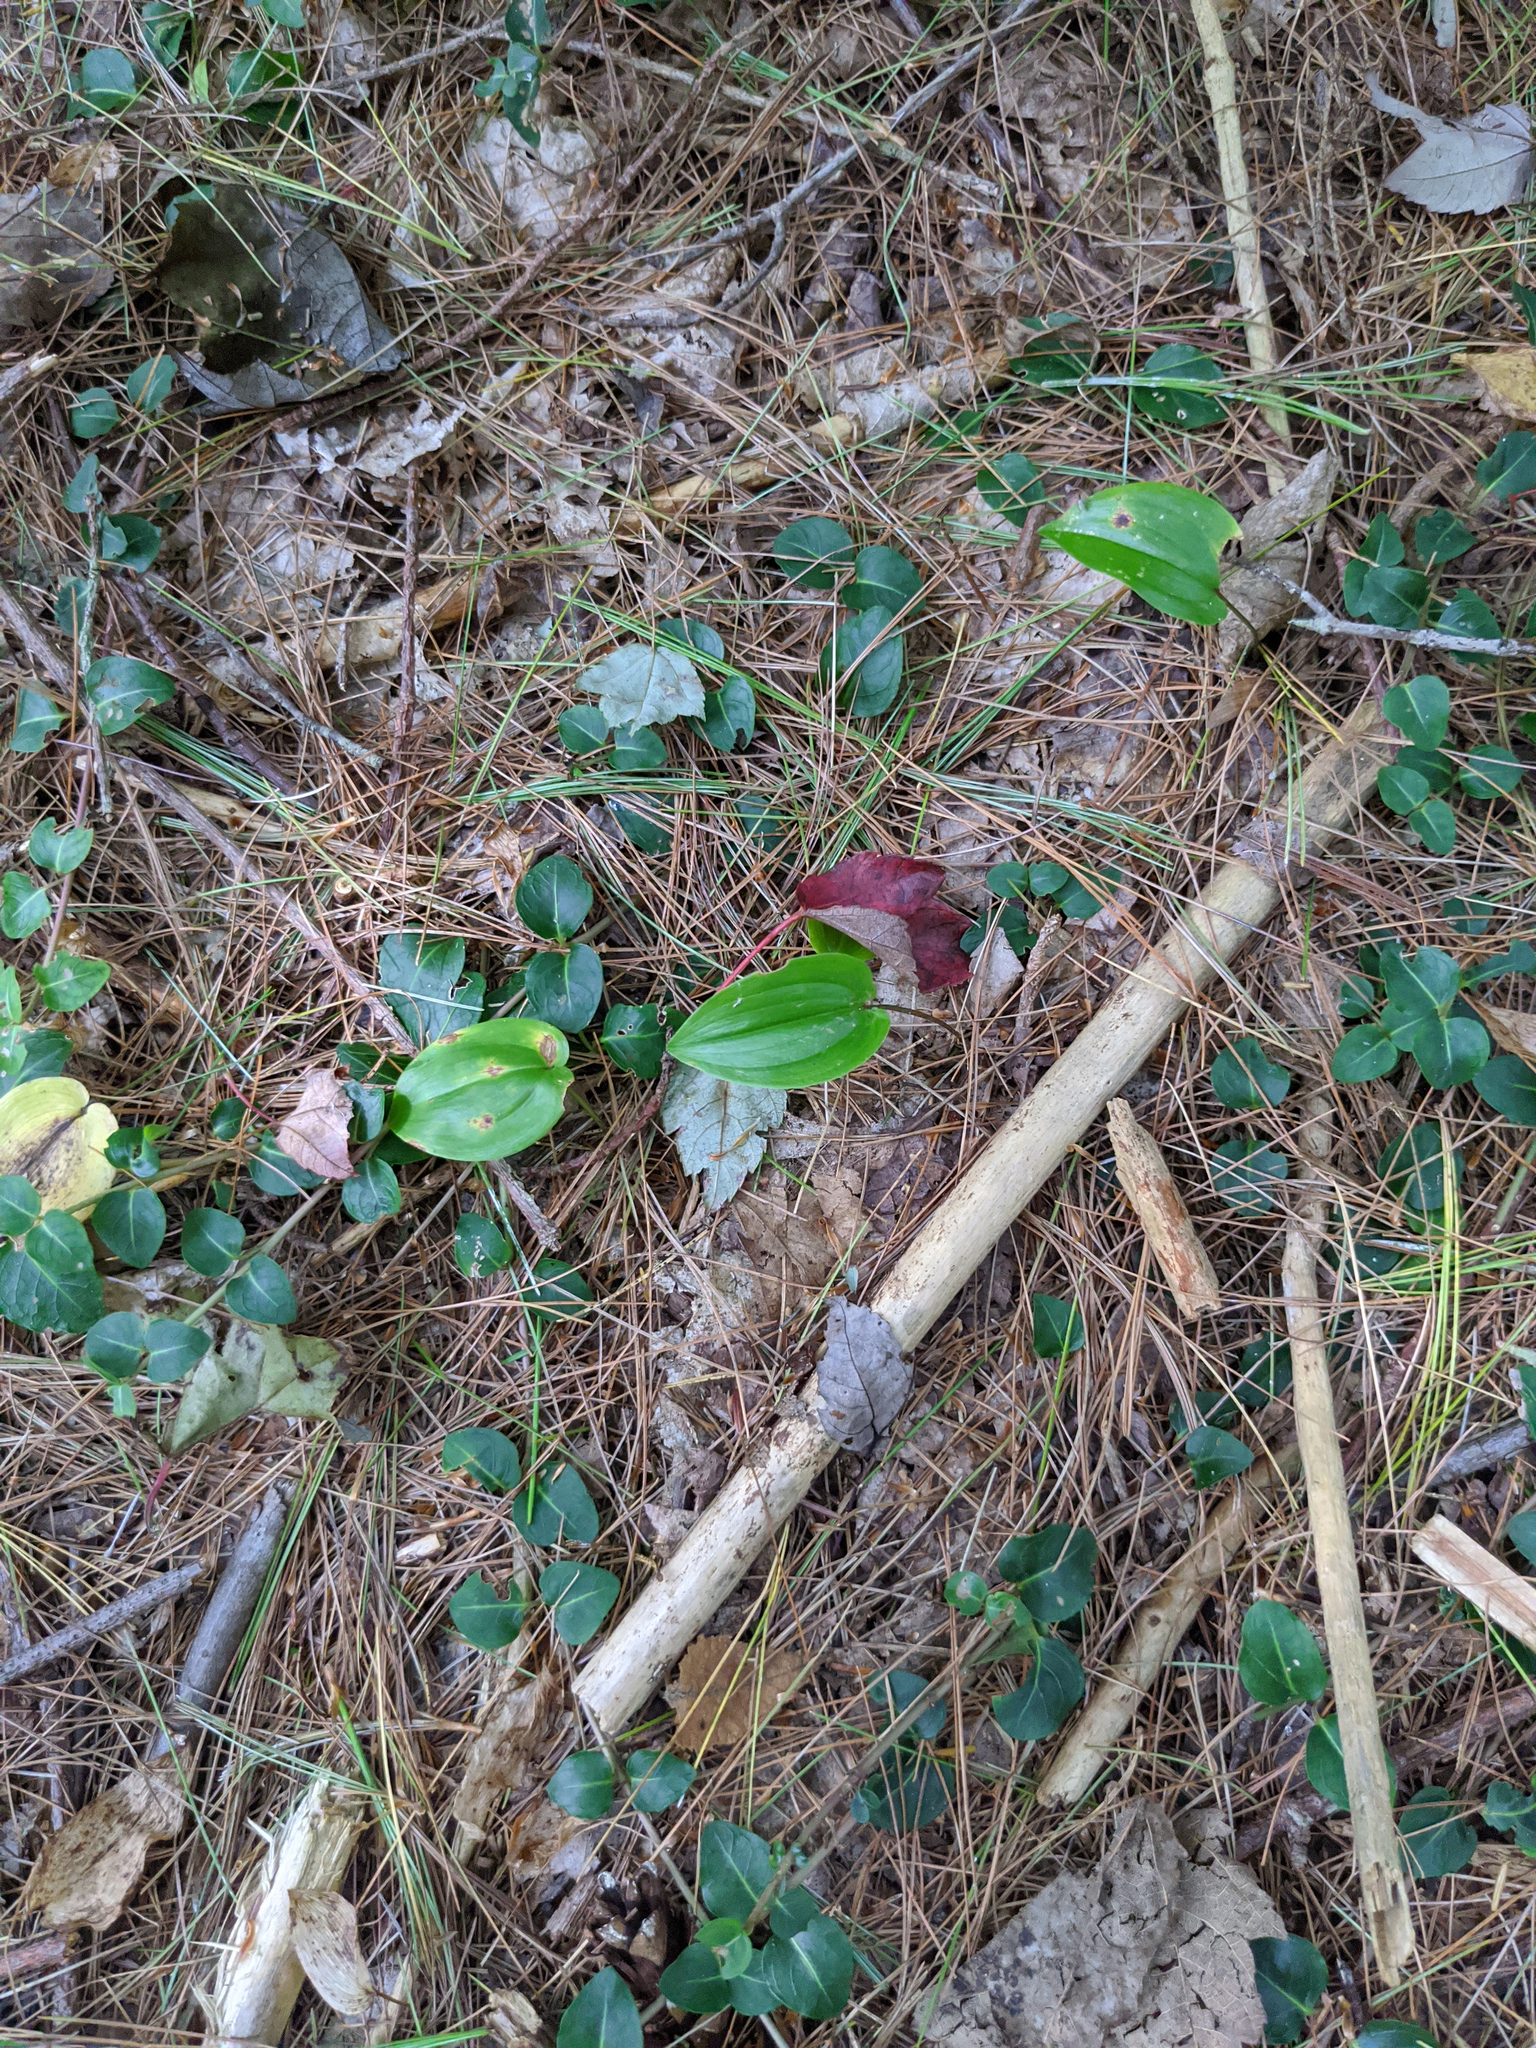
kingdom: Plantae
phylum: Tracheophyta
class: Magnoliopsida
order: Gentianales
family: Rubiaceae
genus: Mitchella
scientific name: Mitchella repens
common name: Partridge-berry
